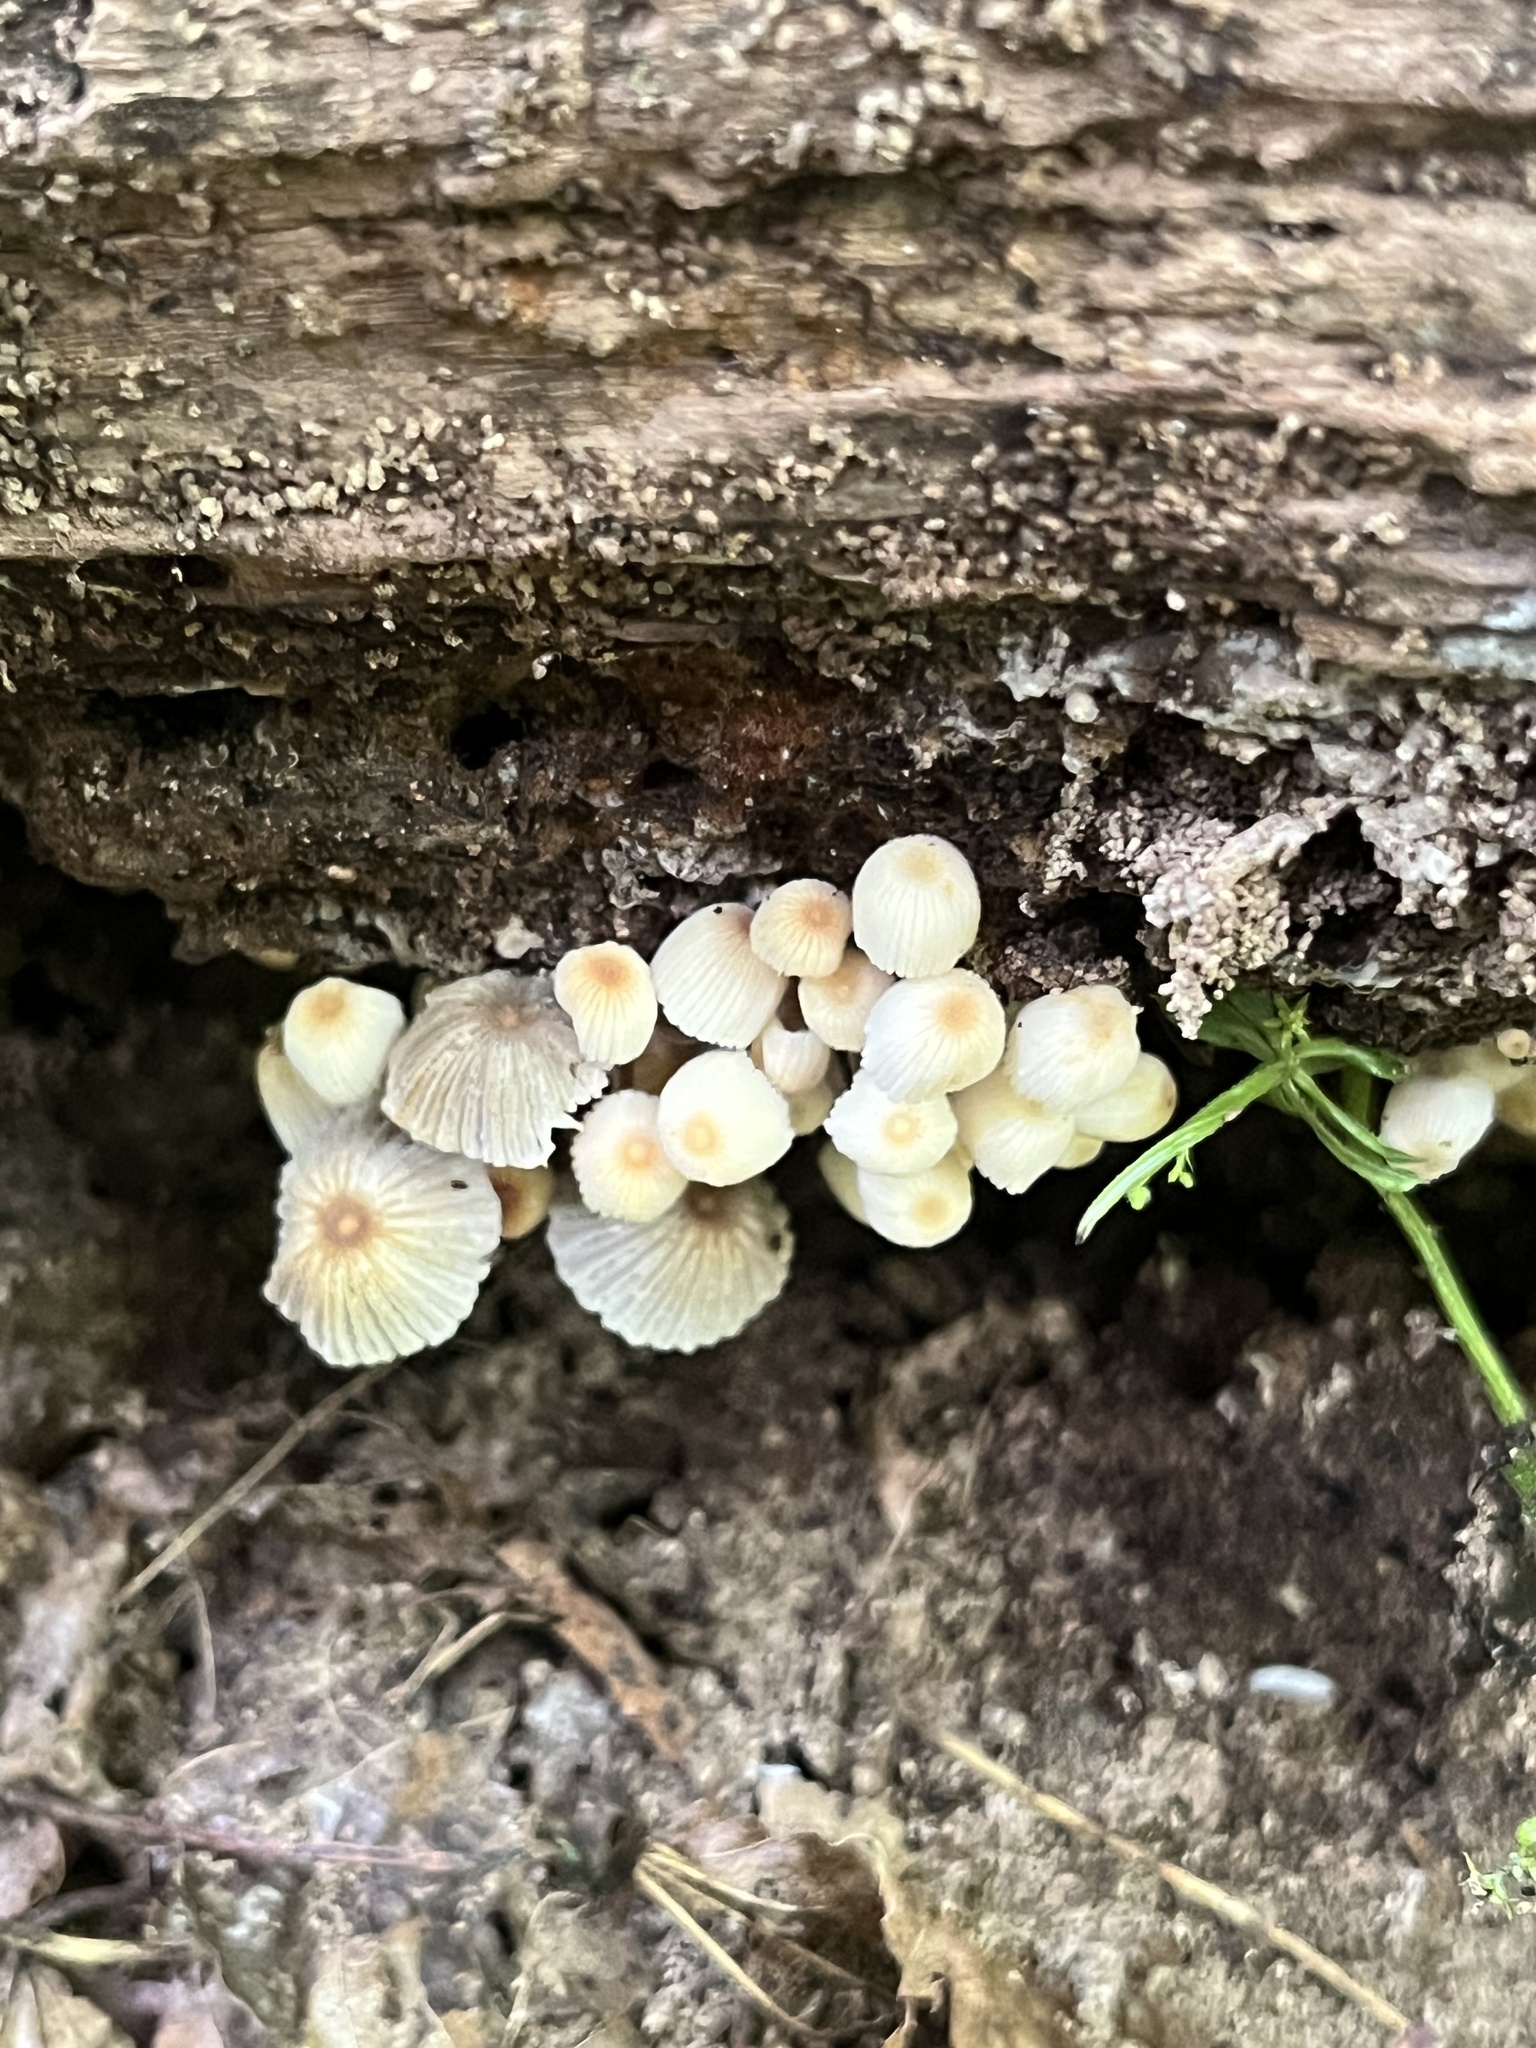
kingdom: Fungi
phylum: Basidiomycota
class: Agaricomycetes
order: Agaricales
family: Psathyrellaceae
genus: Coprinellus
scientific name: Coprinellus disseminatus
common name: Fairies' bonnets
